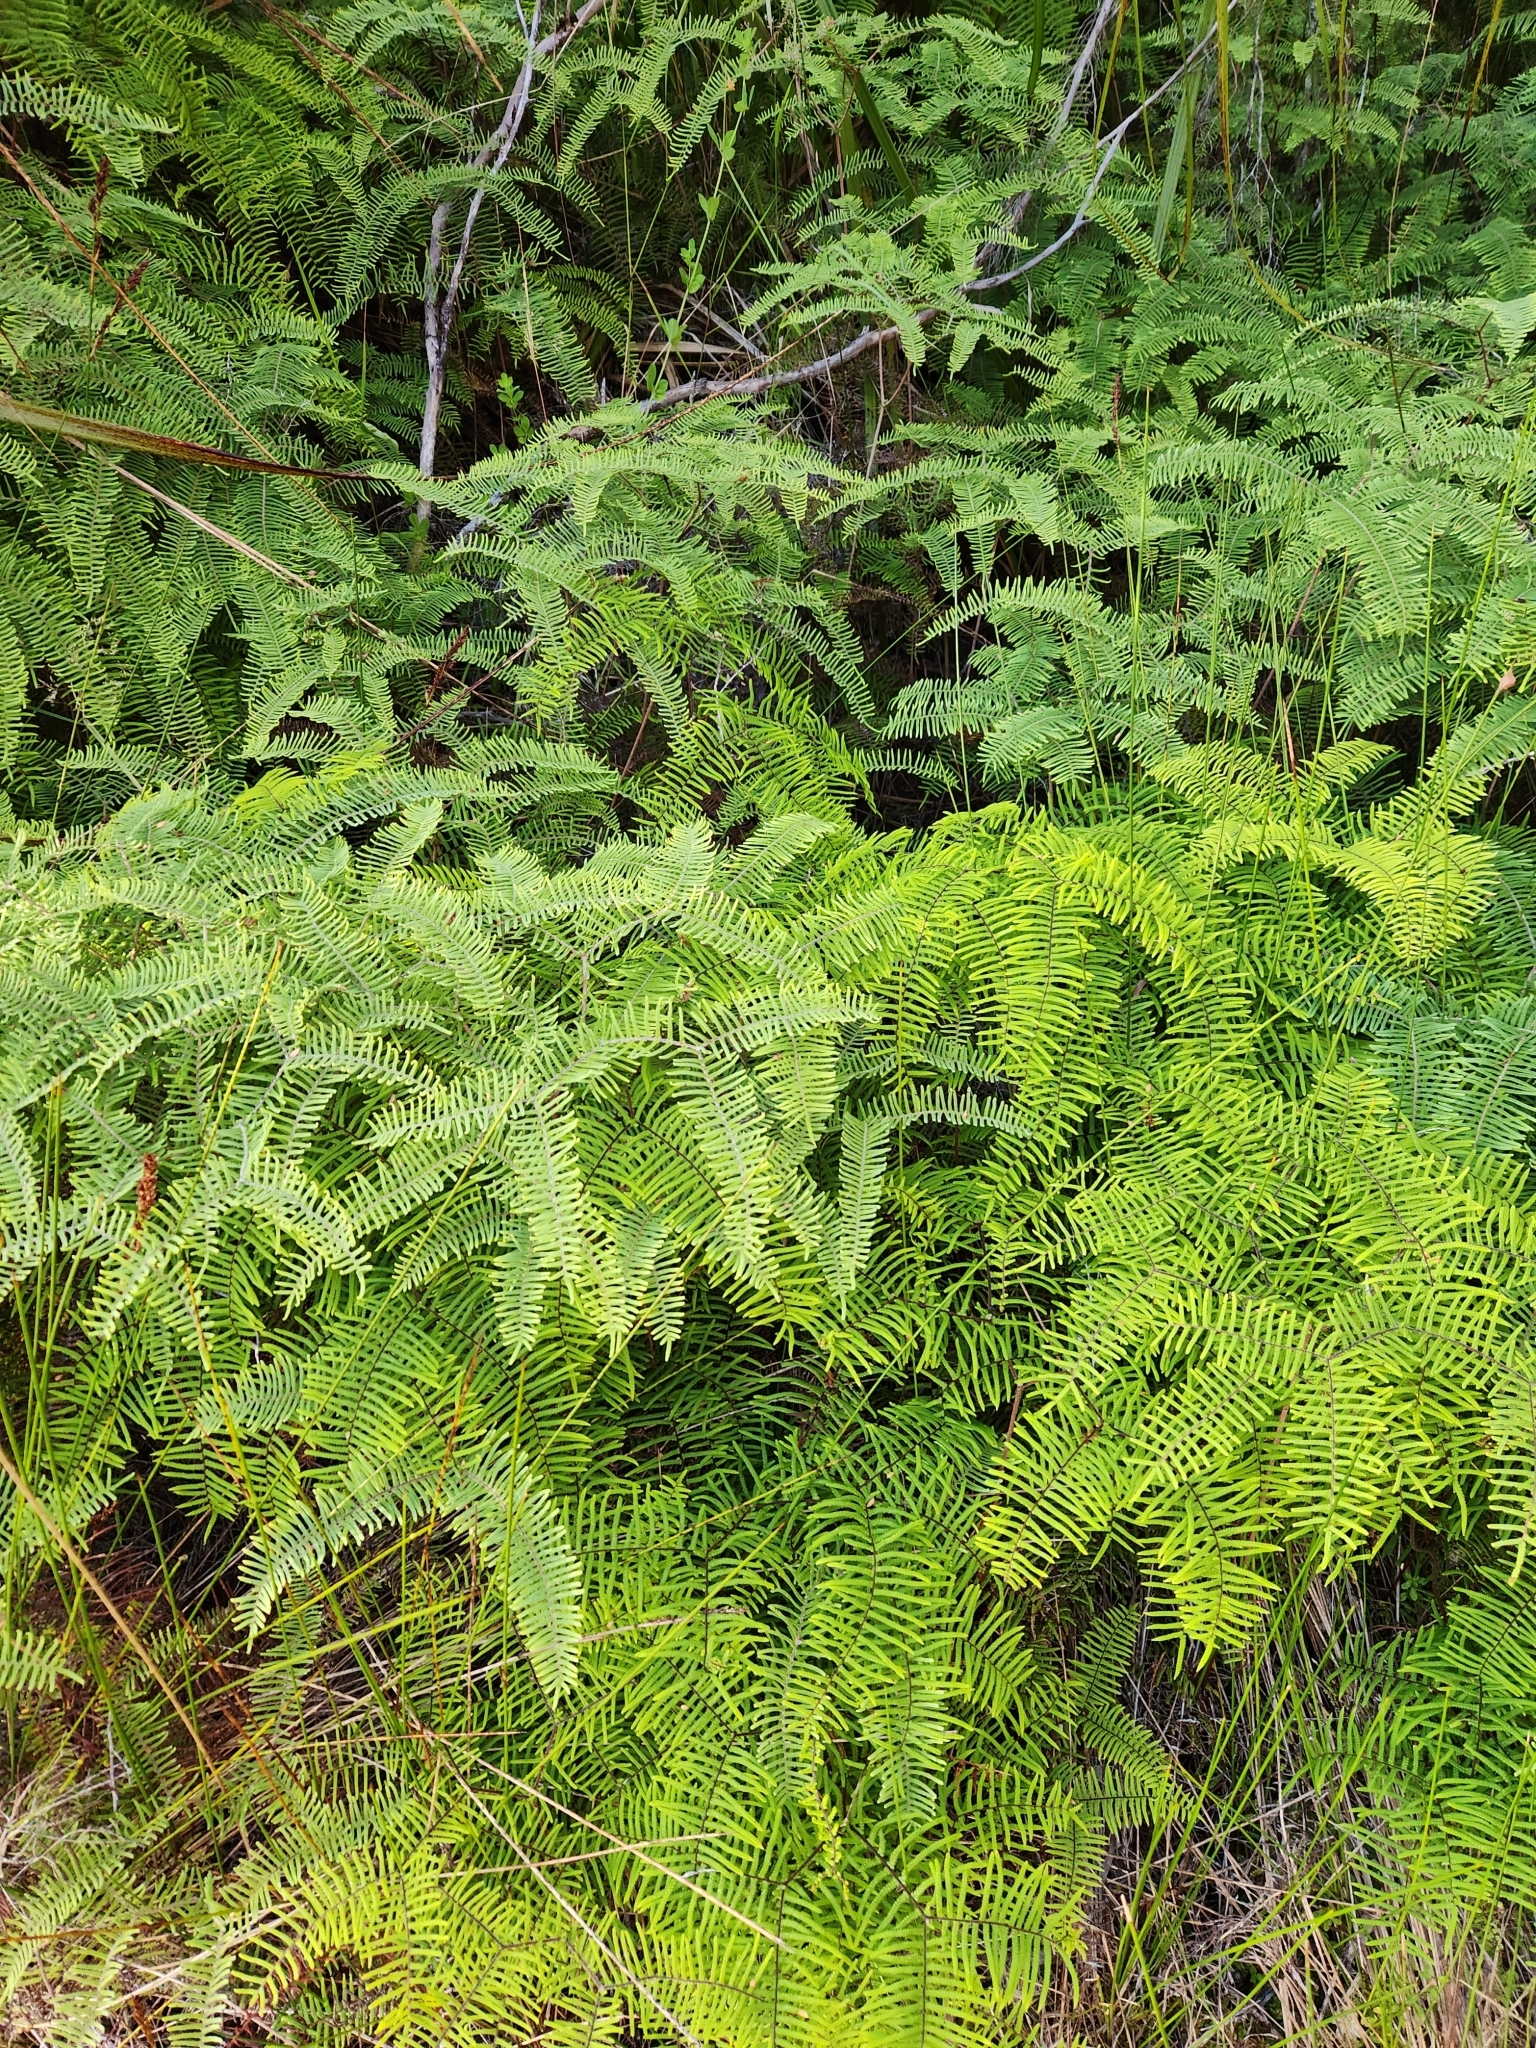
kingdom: Plantae
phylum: Tracheophyta
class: Polypodiopsida
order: Gleicheniales
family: Gleicheniaceae
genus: Gleichenia
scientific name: Gleichenia microphylla
